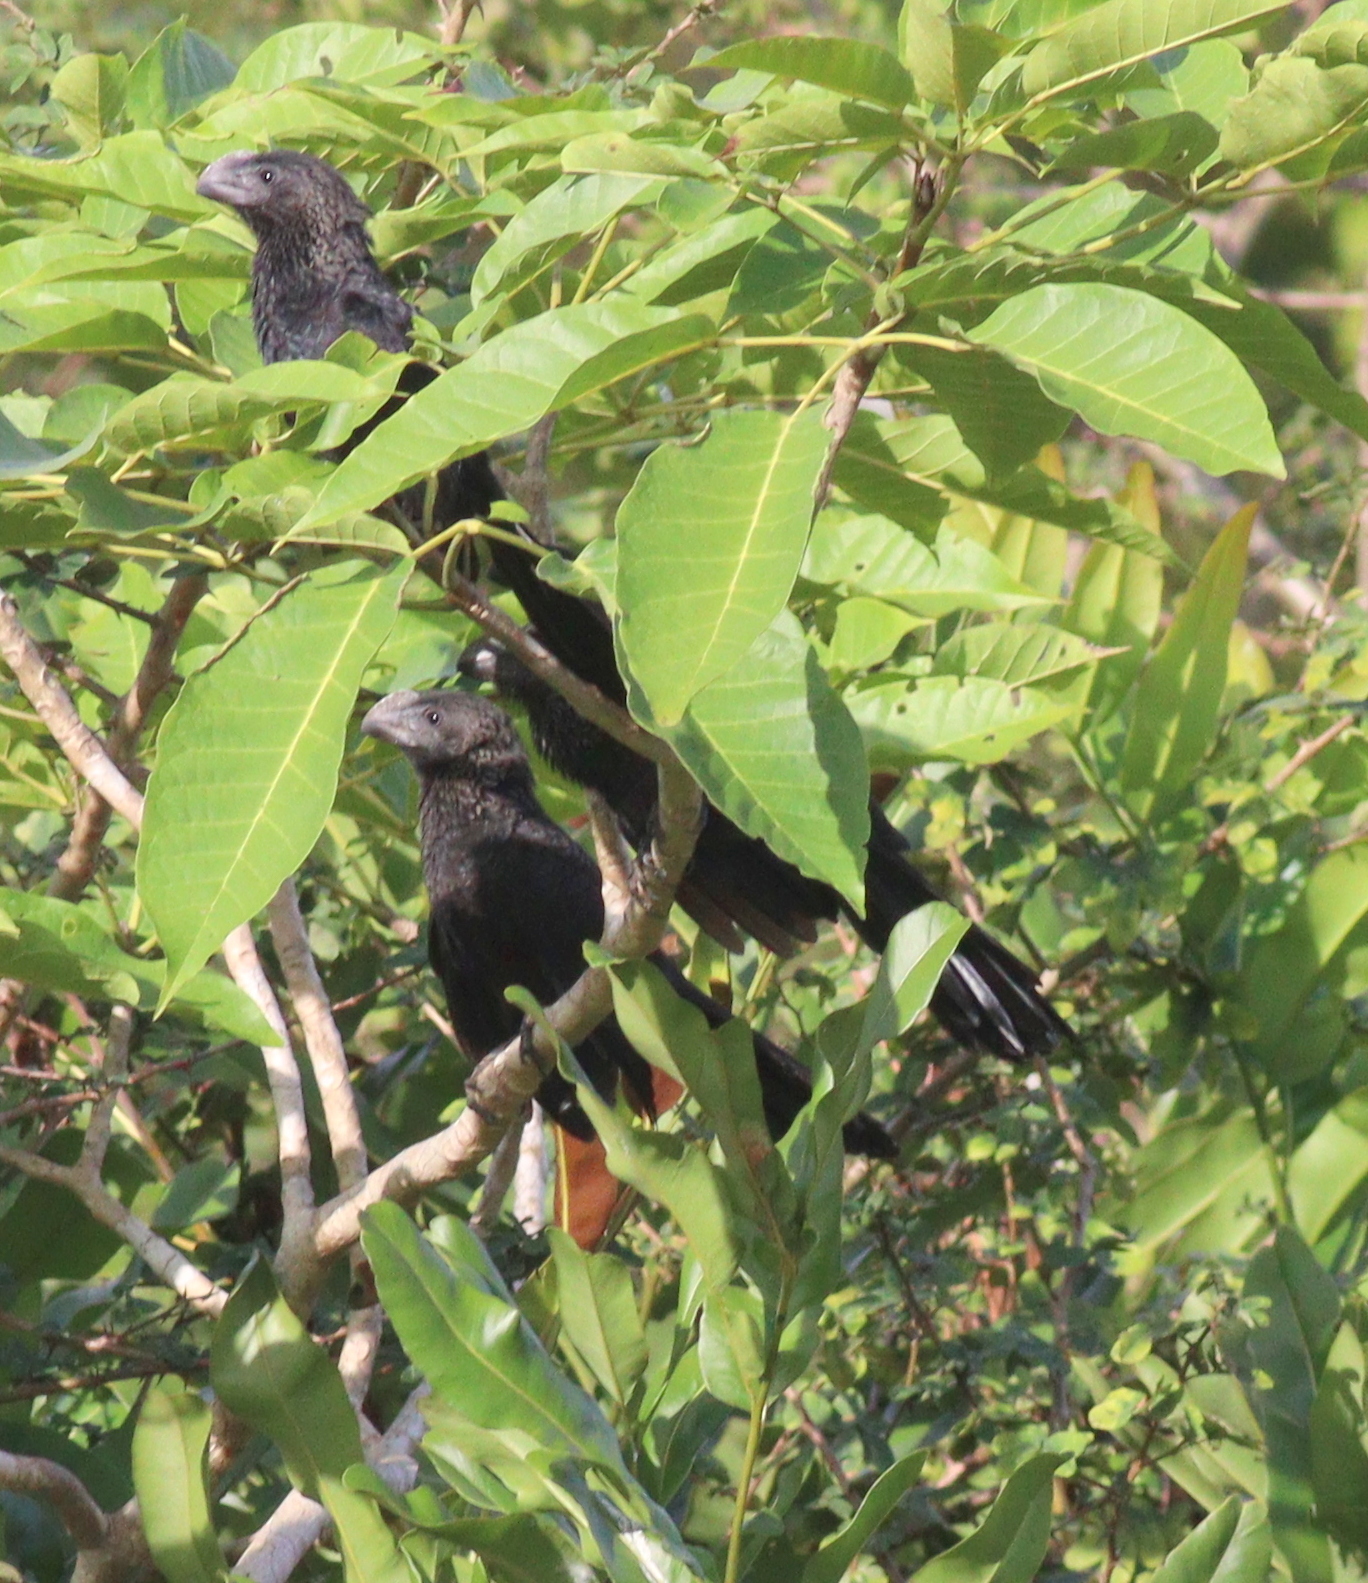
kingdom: Animalia
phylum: Chordata
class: Aves
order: Cuculiformes
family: Cuculidae
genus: Crotophaga
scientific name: Crotophaga ani
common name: Smooth-billed ani
